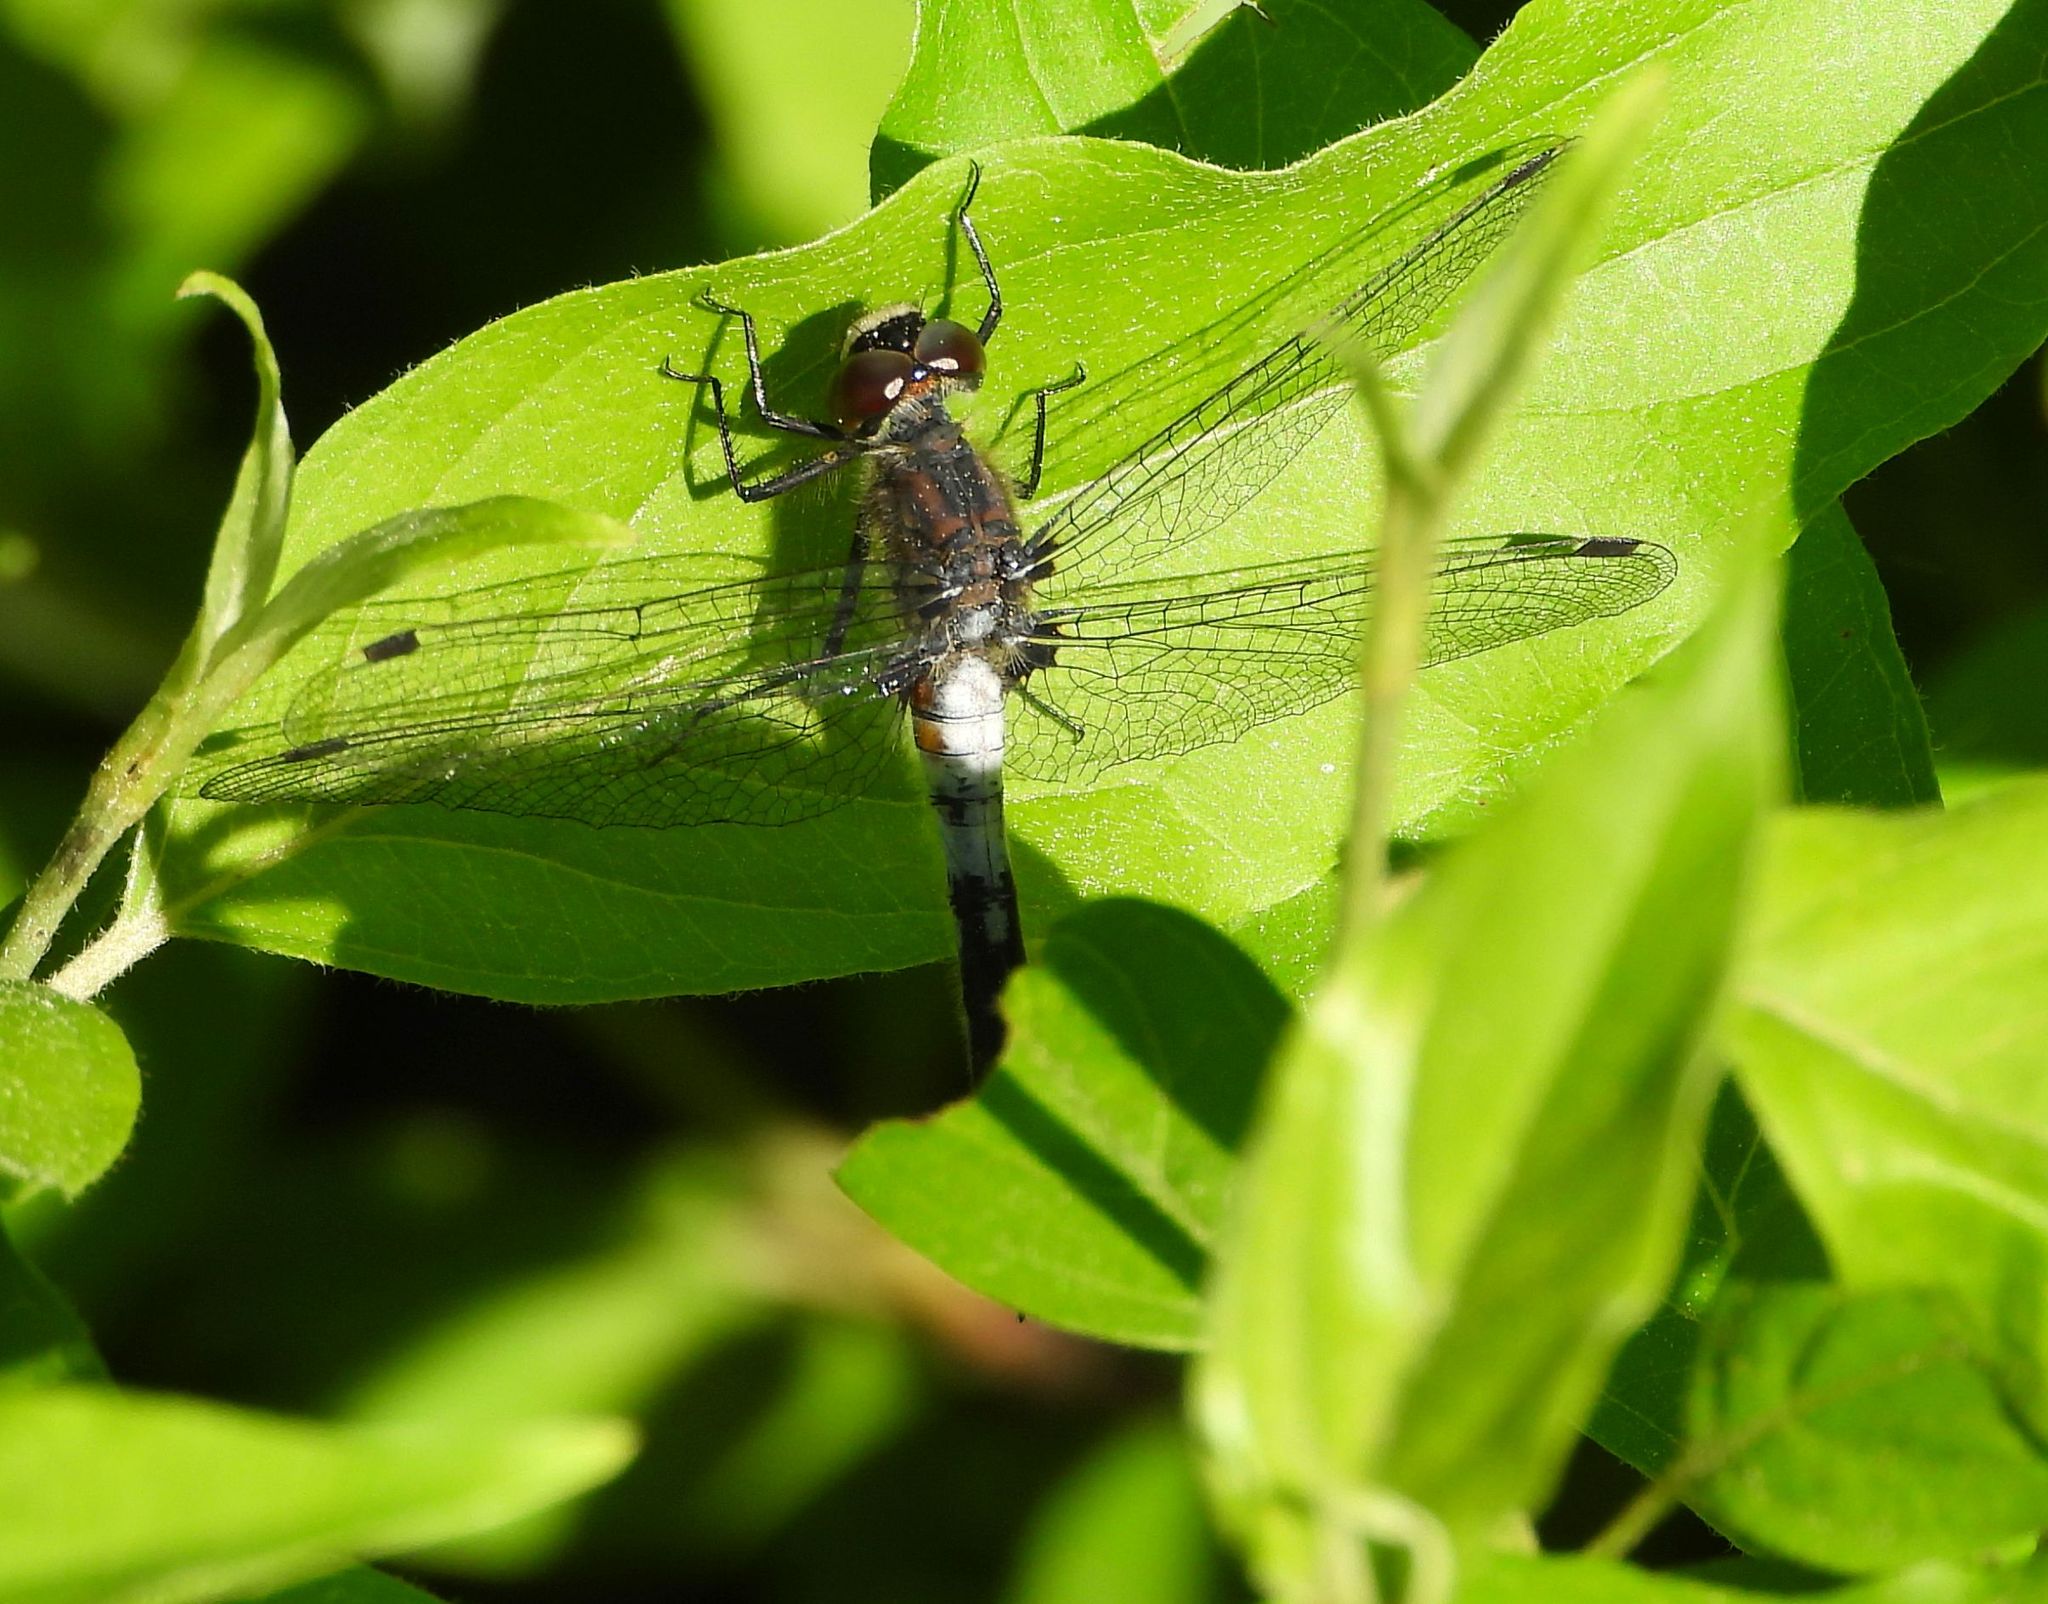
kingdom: Animalia
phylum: Arthropoda
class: Insecta
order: Odonata
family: Libellulidae
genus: Leucorrhinia
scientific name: Leucorrhinia proxima
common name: Belted whiteface
